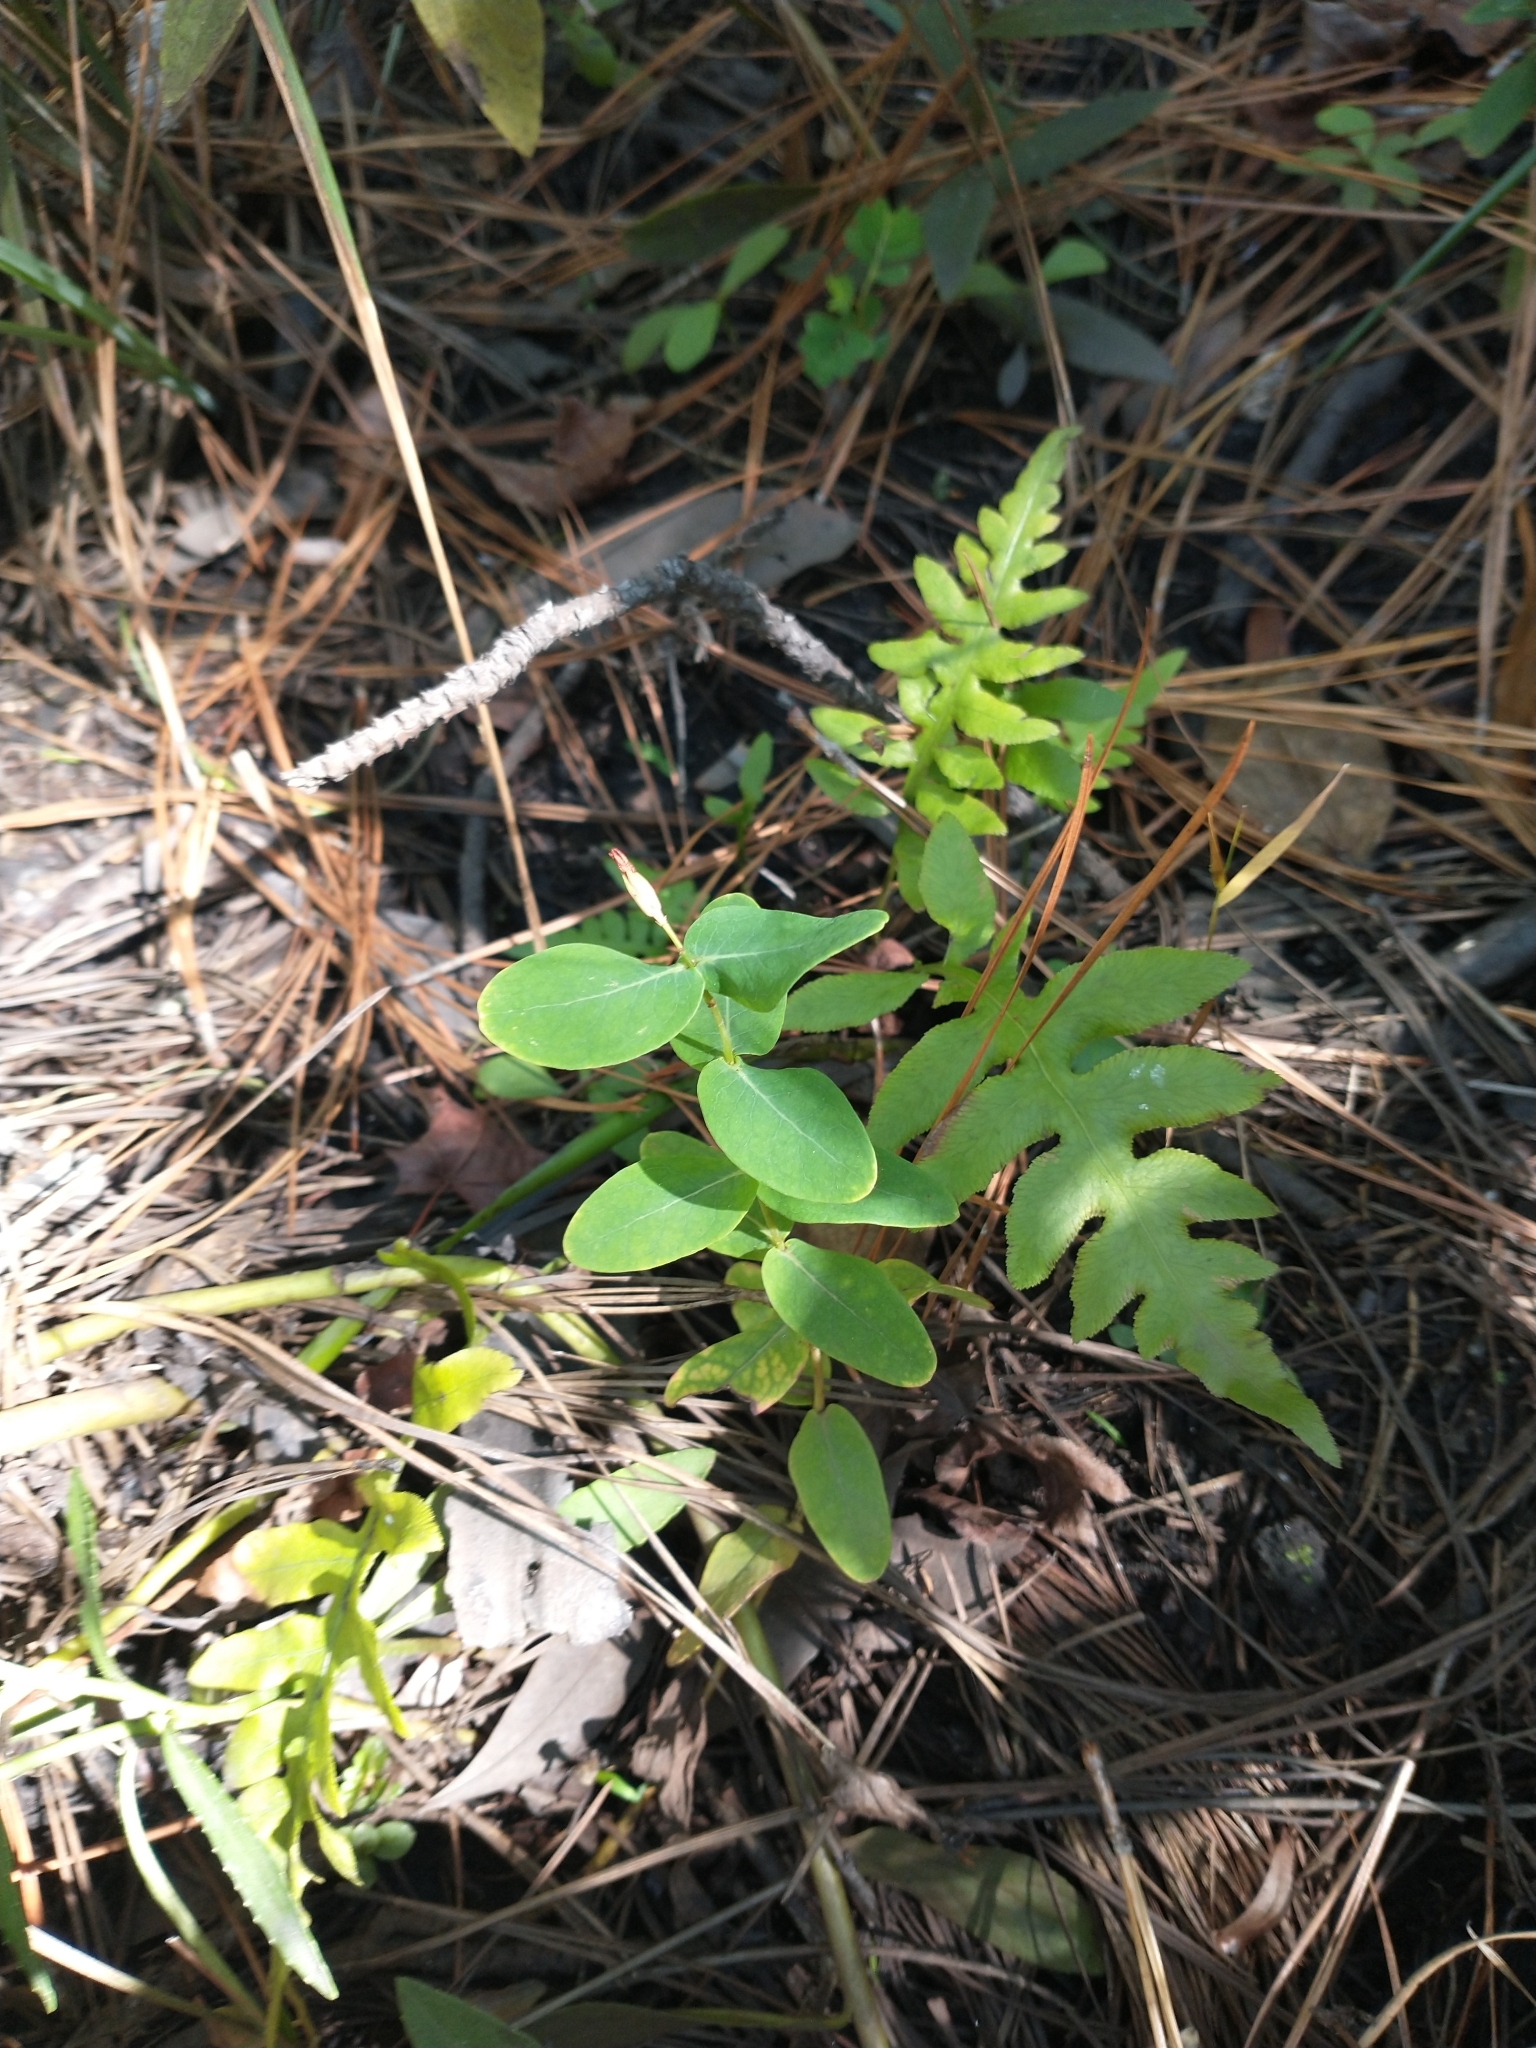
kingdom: Plantae
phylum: Tracheophyta
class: Polypodiopsida
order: Polypodiales
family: Blechnaceae
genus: Lorinseria
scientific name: Lorinseria areolata
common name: Dwarf chain fern
